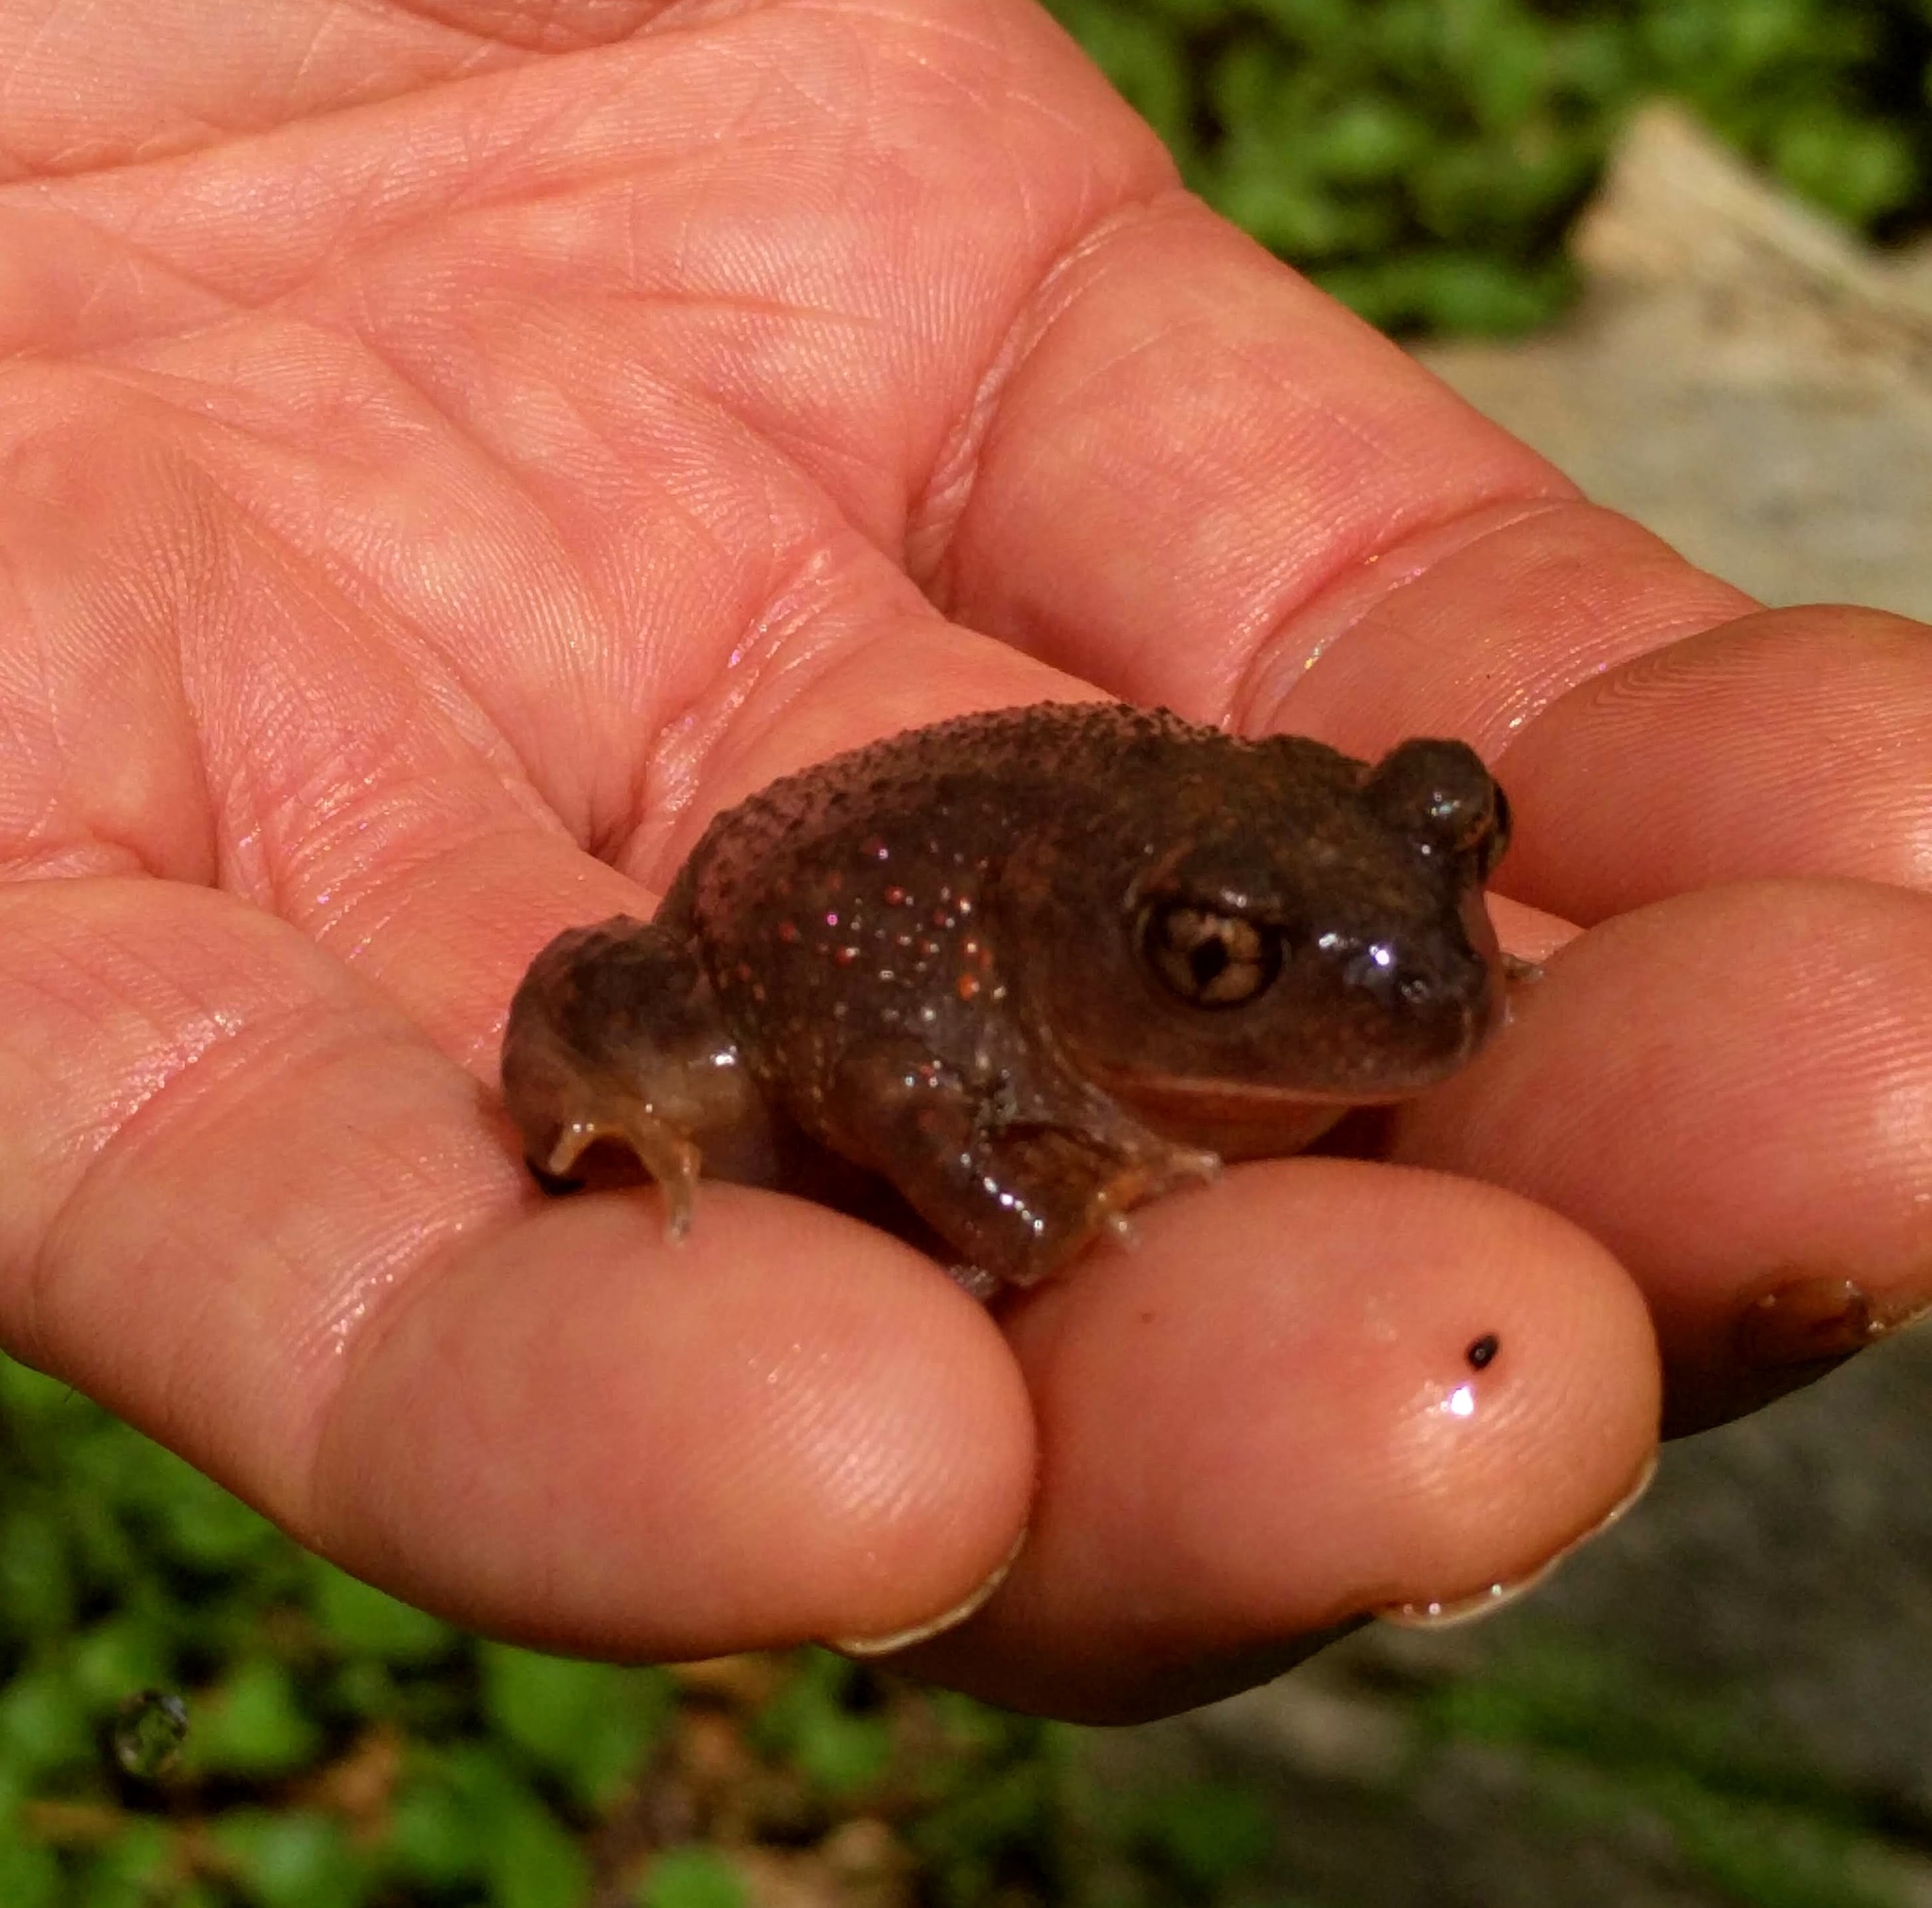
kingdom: Animalia
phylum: Chordata
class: Amphibia
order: Anura
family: Scaphiopodidae
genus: Scaphiopus
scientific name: Scaphiopus holbrookii
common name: Eastern spadefoot toad
